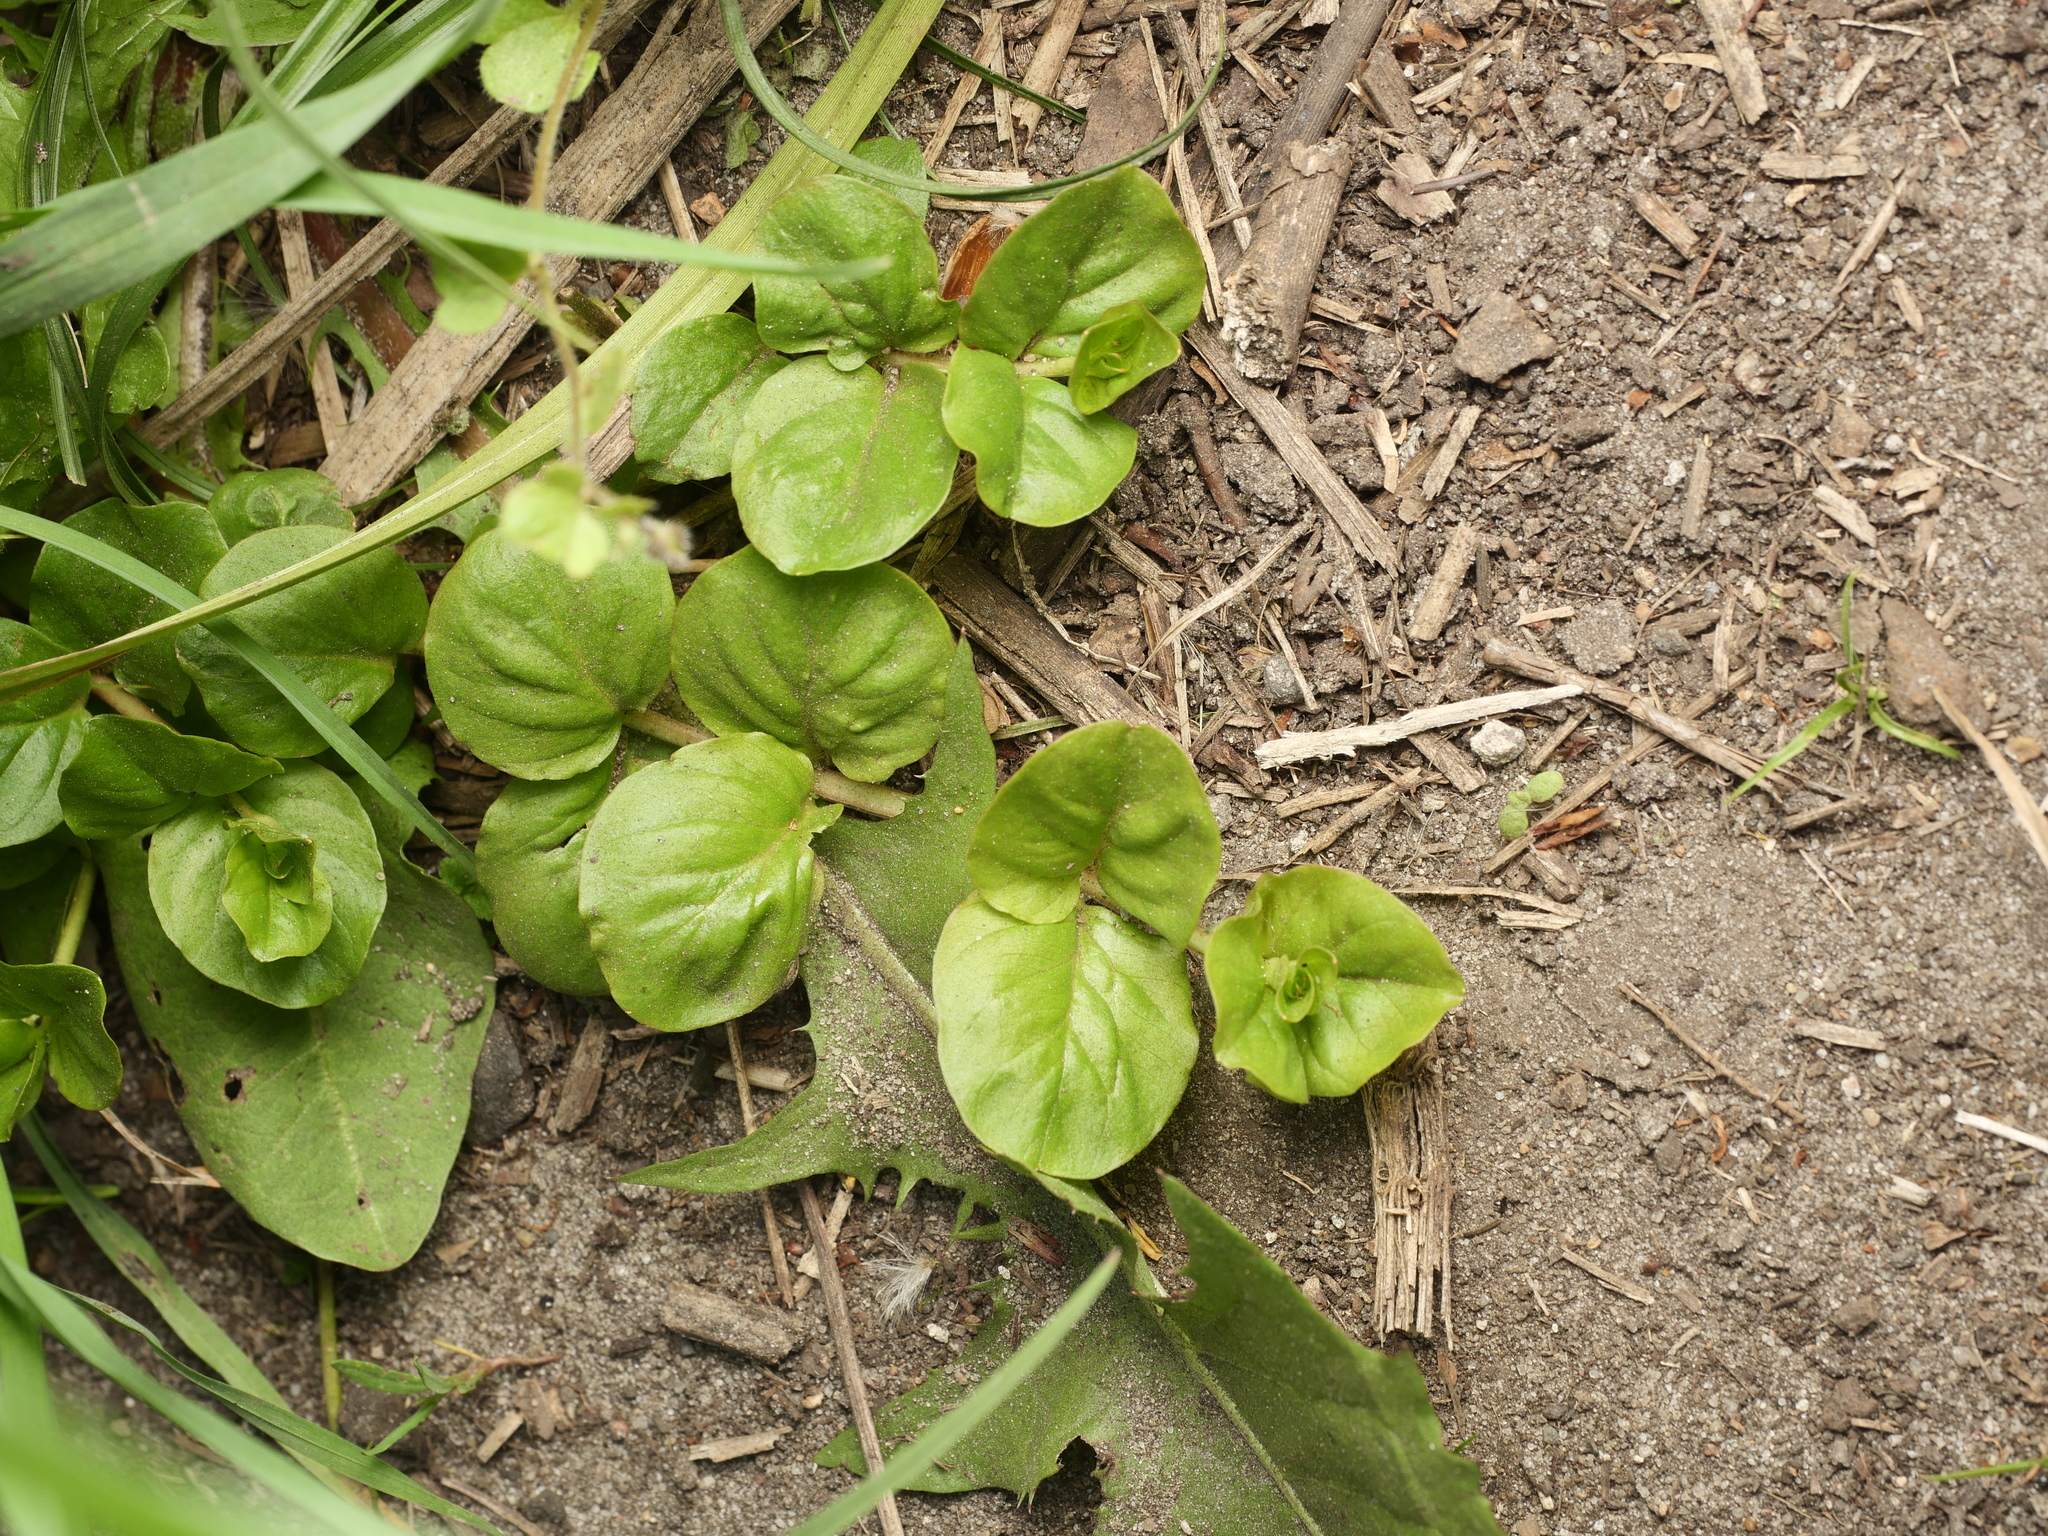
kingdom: Plantae
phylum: Tracheophyta
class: Magnoliopsida
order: Ericales
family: Primulaceae
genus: Lysimachia
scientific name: Lysimachia nummularia
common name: Moneywort
